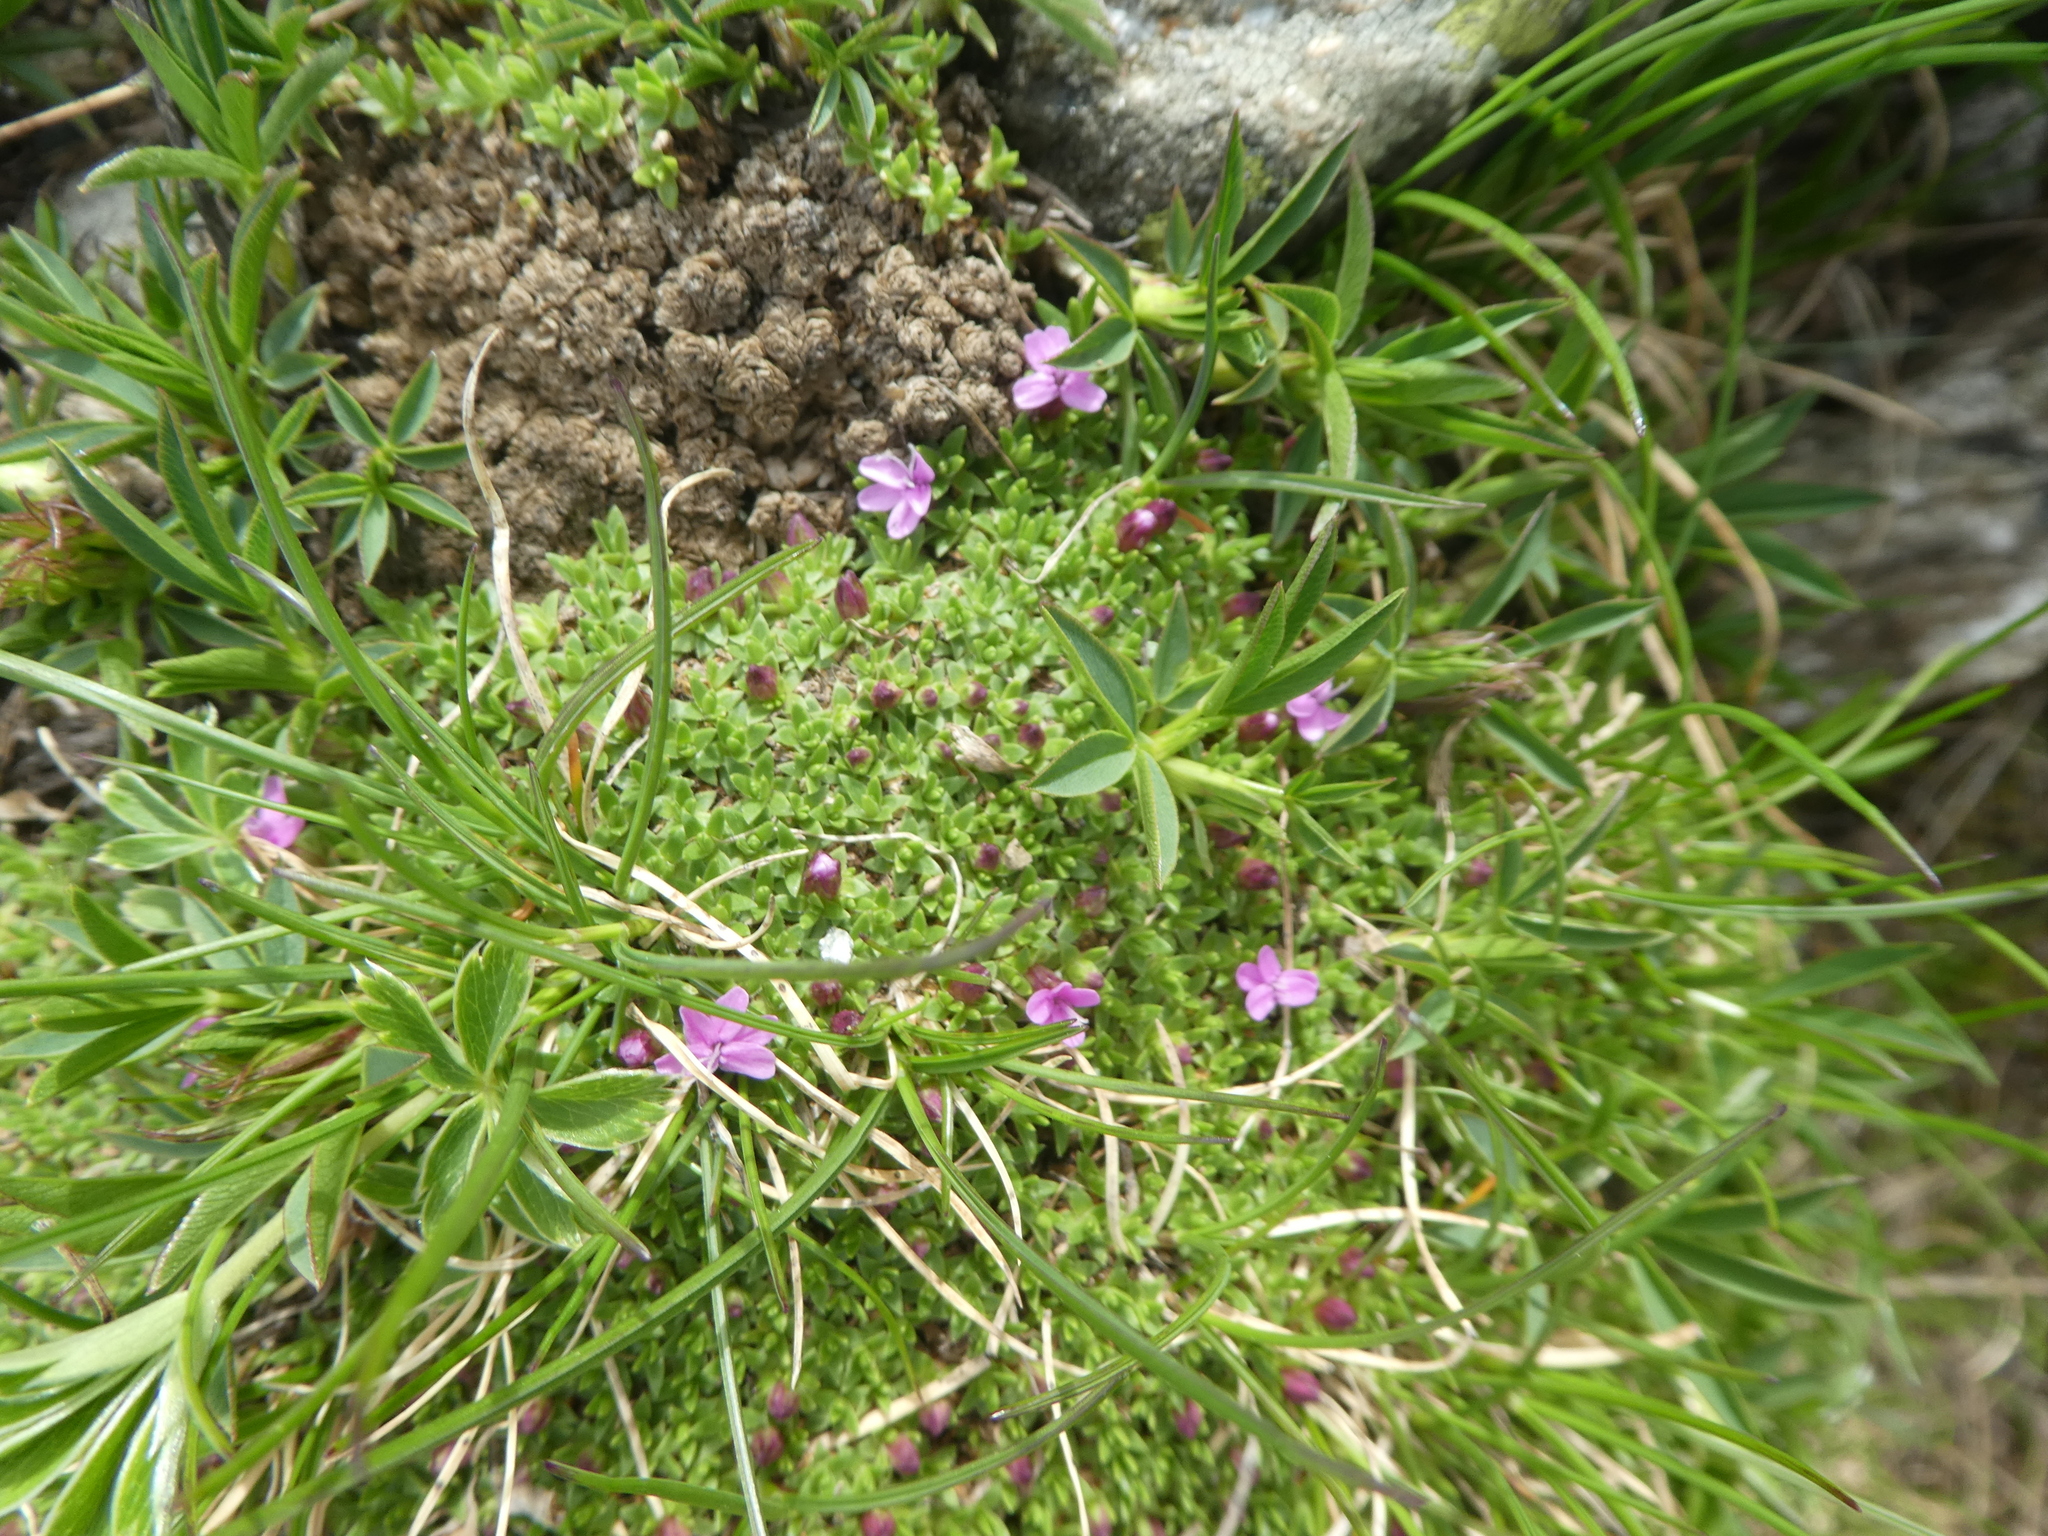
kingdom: Plantae
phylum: Tracheophyta
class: Magnoliopsida
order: Caryophyllales
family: Caryophyllaceae
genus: Silene
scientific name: Silene acaulis
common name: Moss campion
